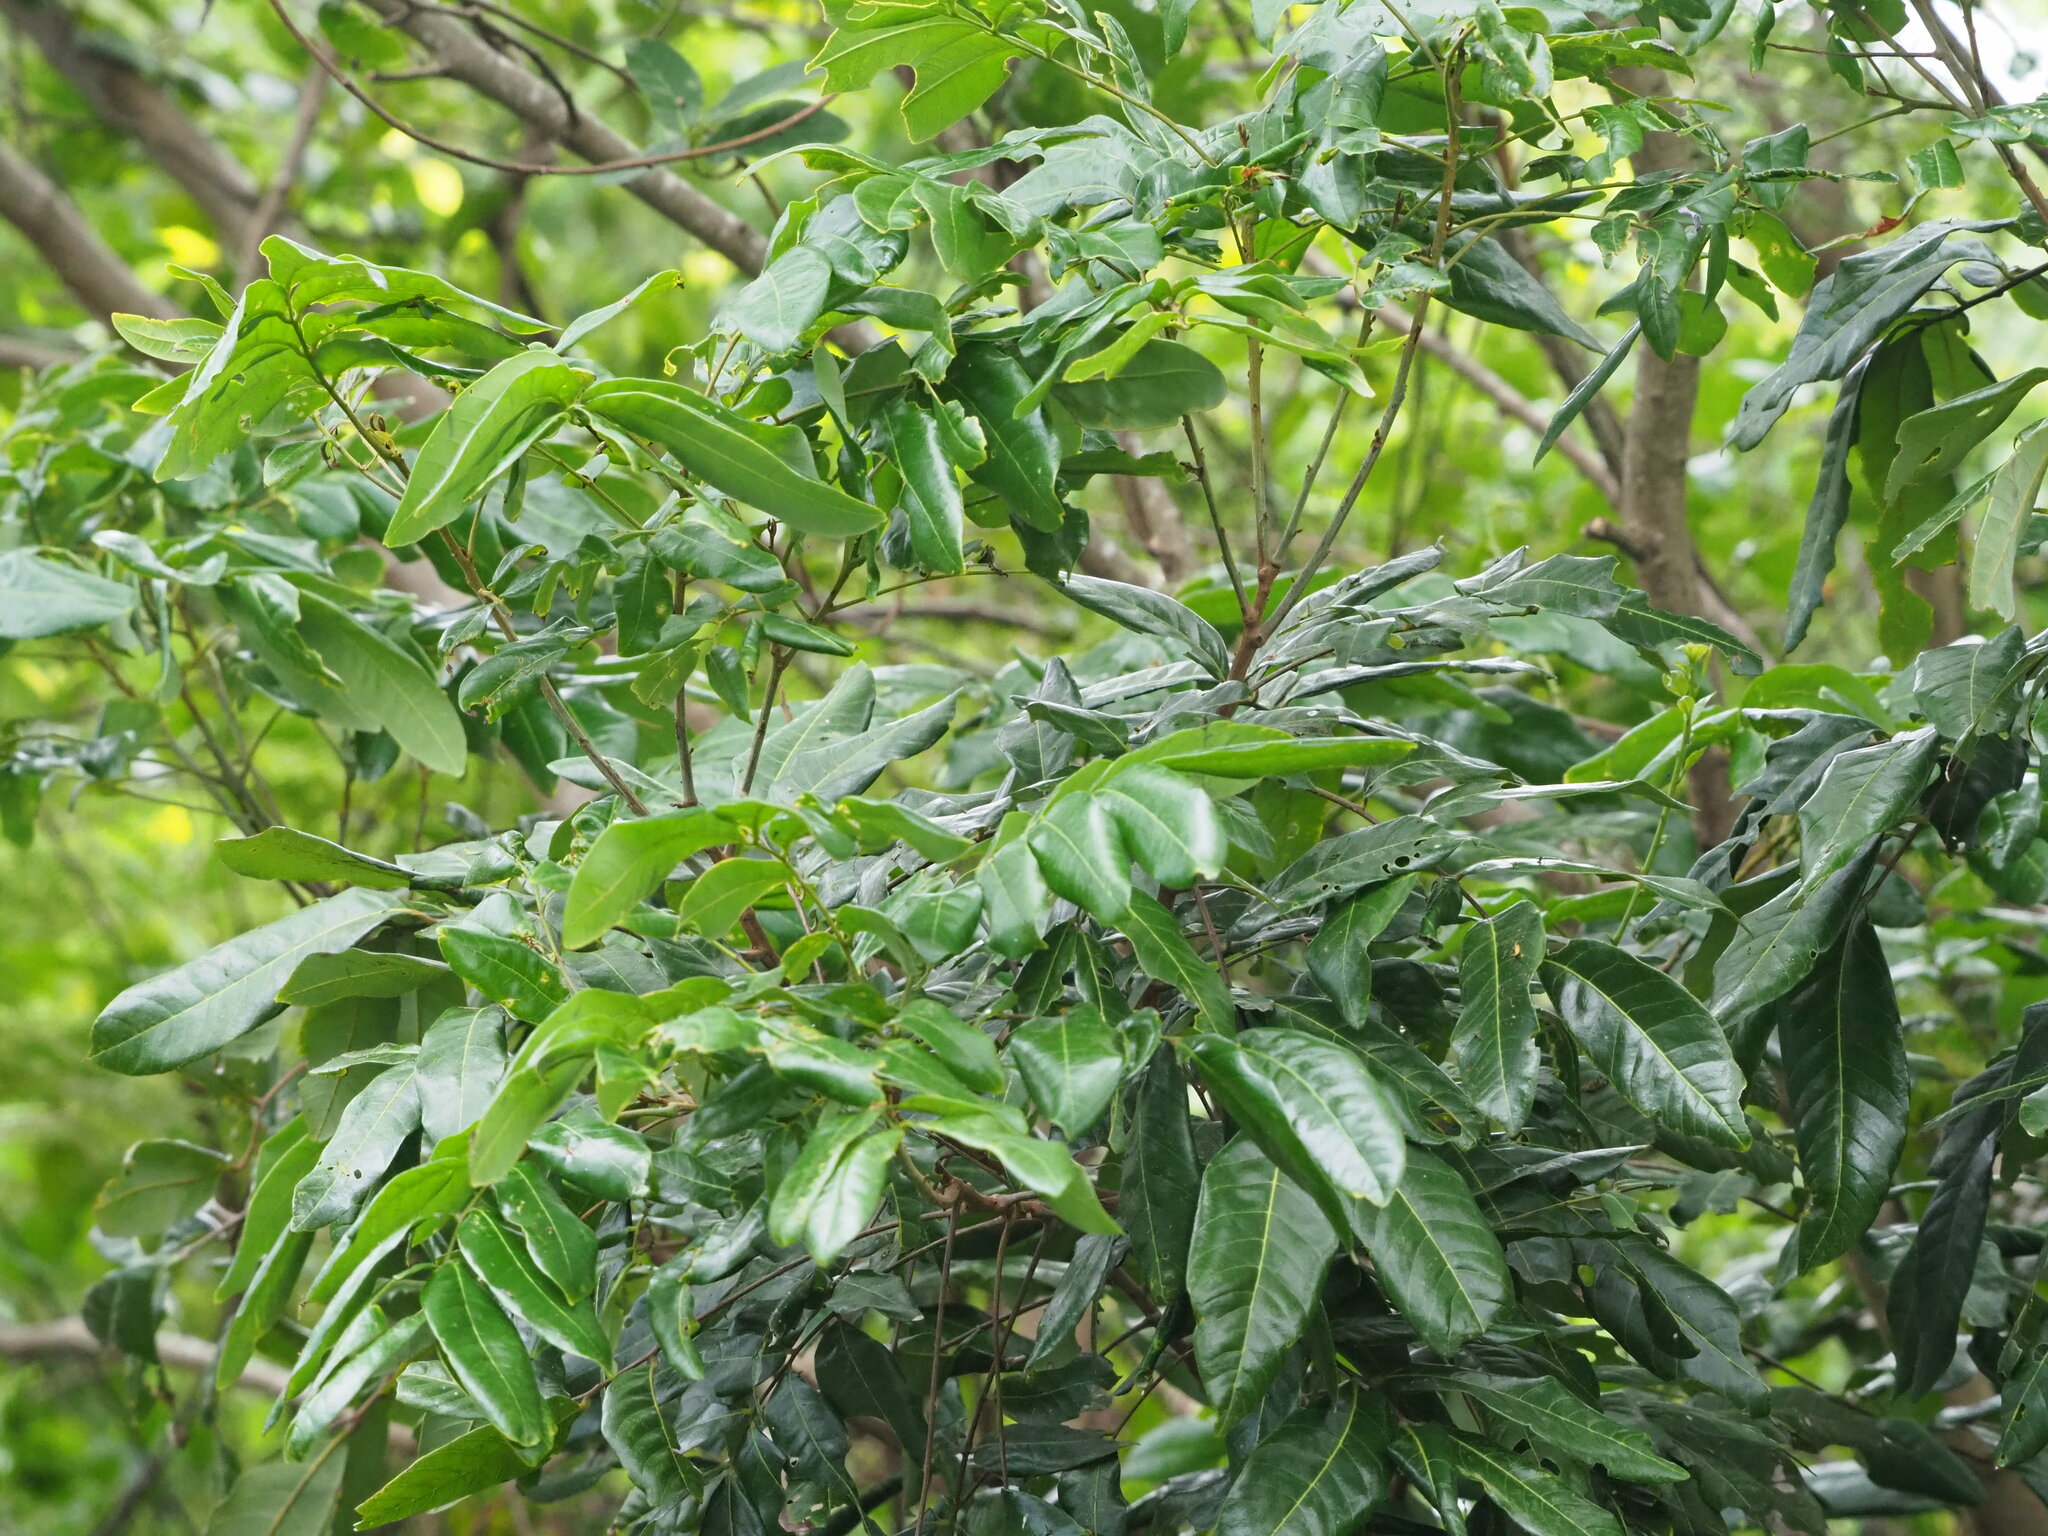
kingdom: Plantae
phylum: Tracheophyta
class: Magnoliopsida
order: Sapindales
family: Sapindaceae
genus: Dimocarpus
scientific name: Dimocarpus longan
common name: Longan
